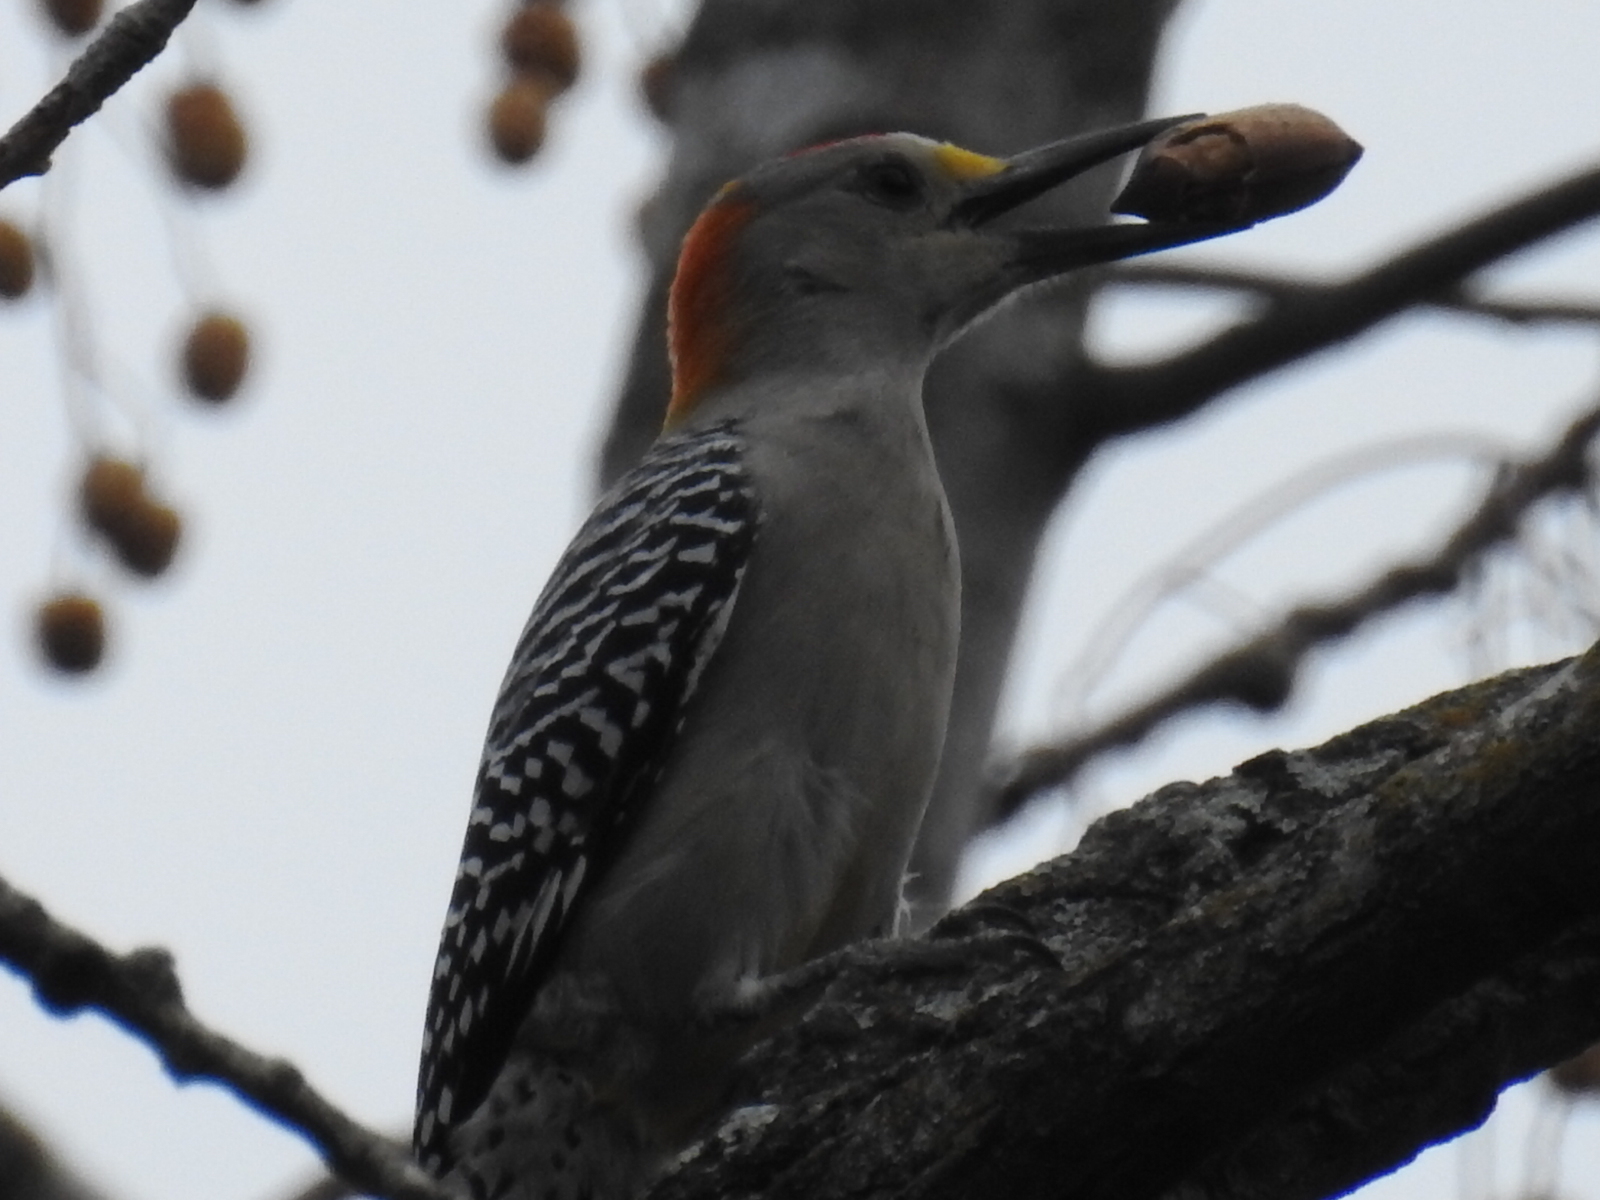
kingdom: Animalia
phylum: Chordata
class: Aves
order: Piciformes
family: Picidae
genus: Melanerpes
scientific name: Melanerpes aurifrons
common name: Golden-fronted woodpecker
